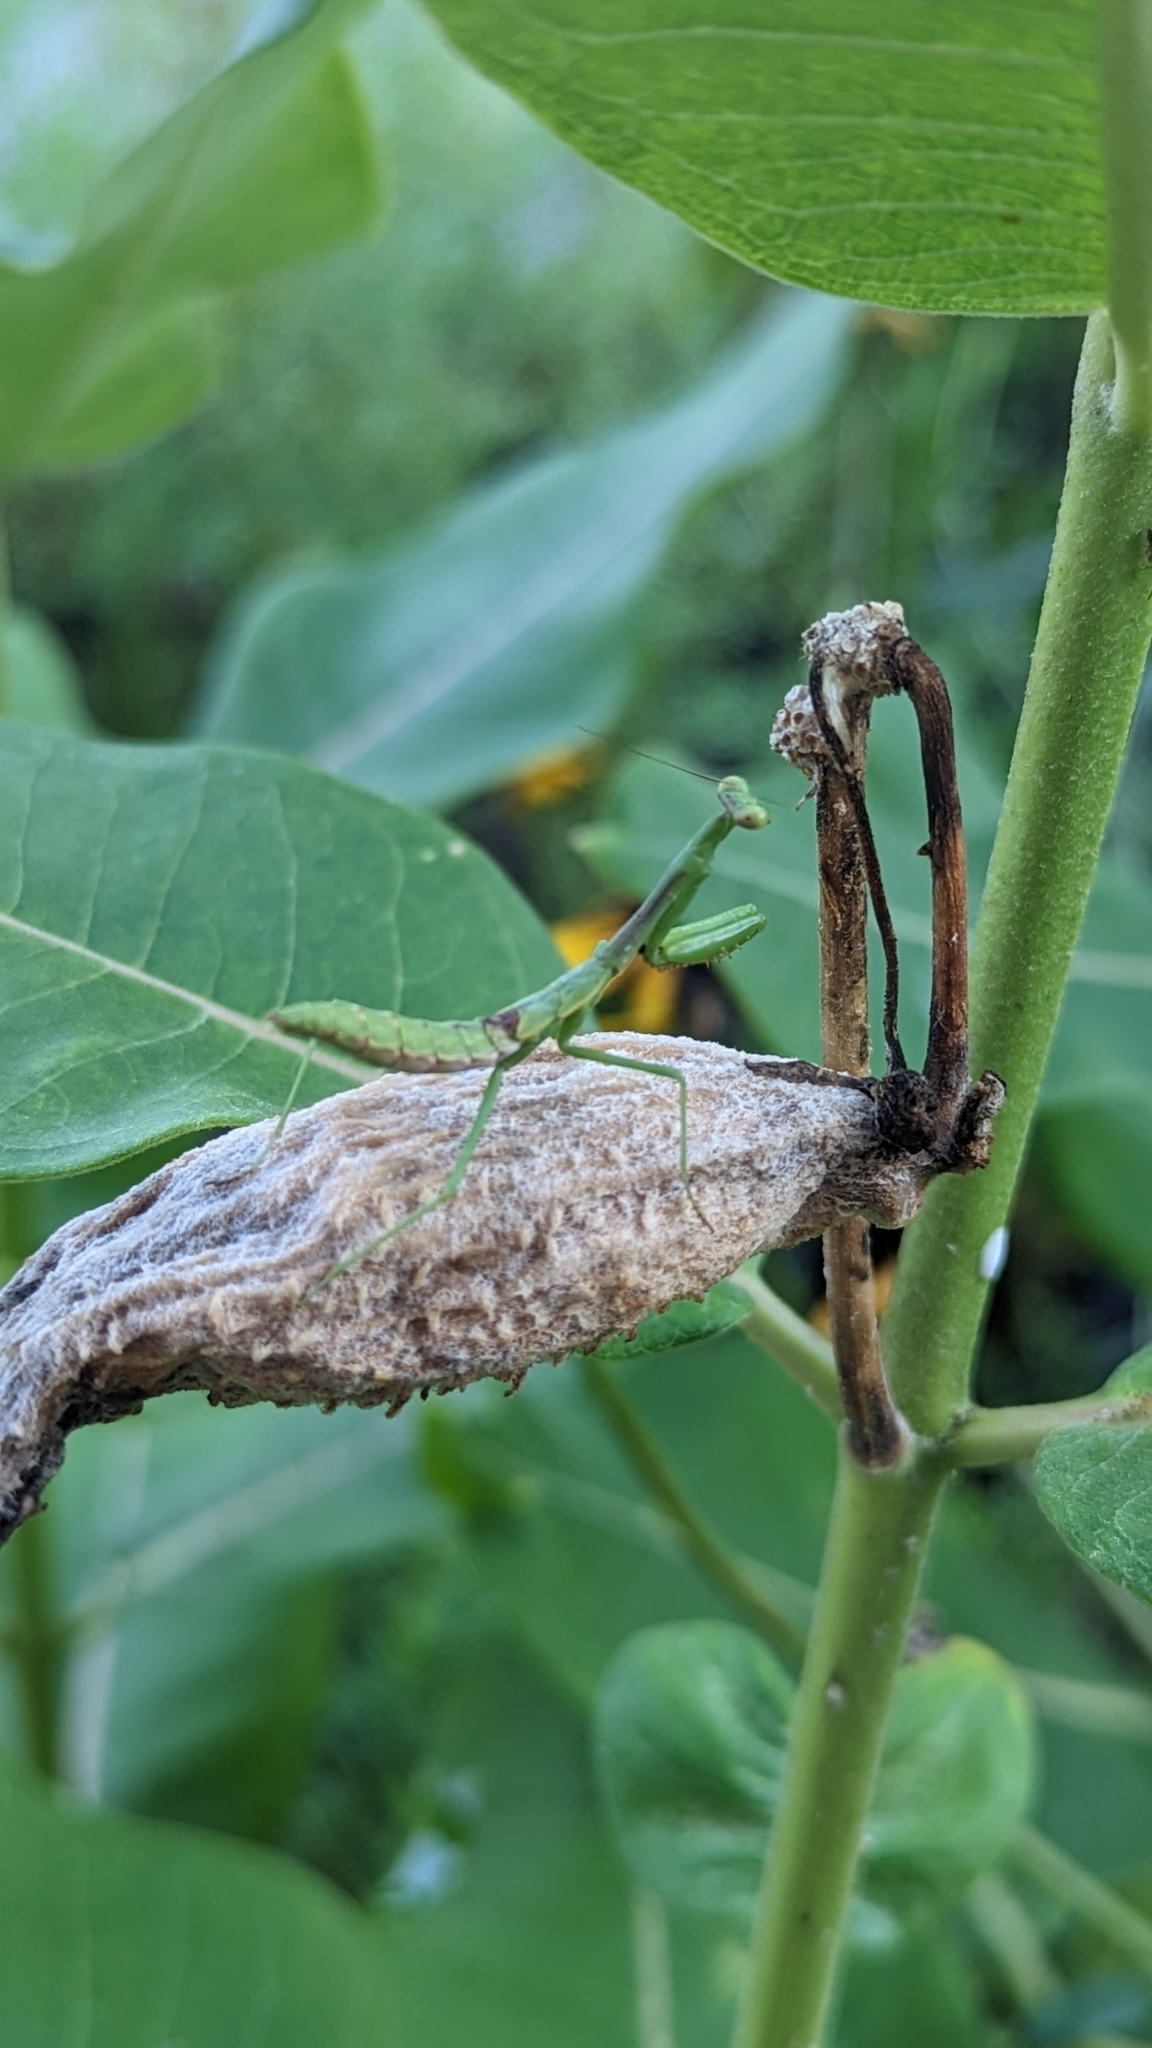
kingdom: Animalia
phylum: Arthropoda
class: Insecta
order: Mantodea
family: Mantidae
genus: Stagmomantis
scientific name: Stagmomantis carolina
